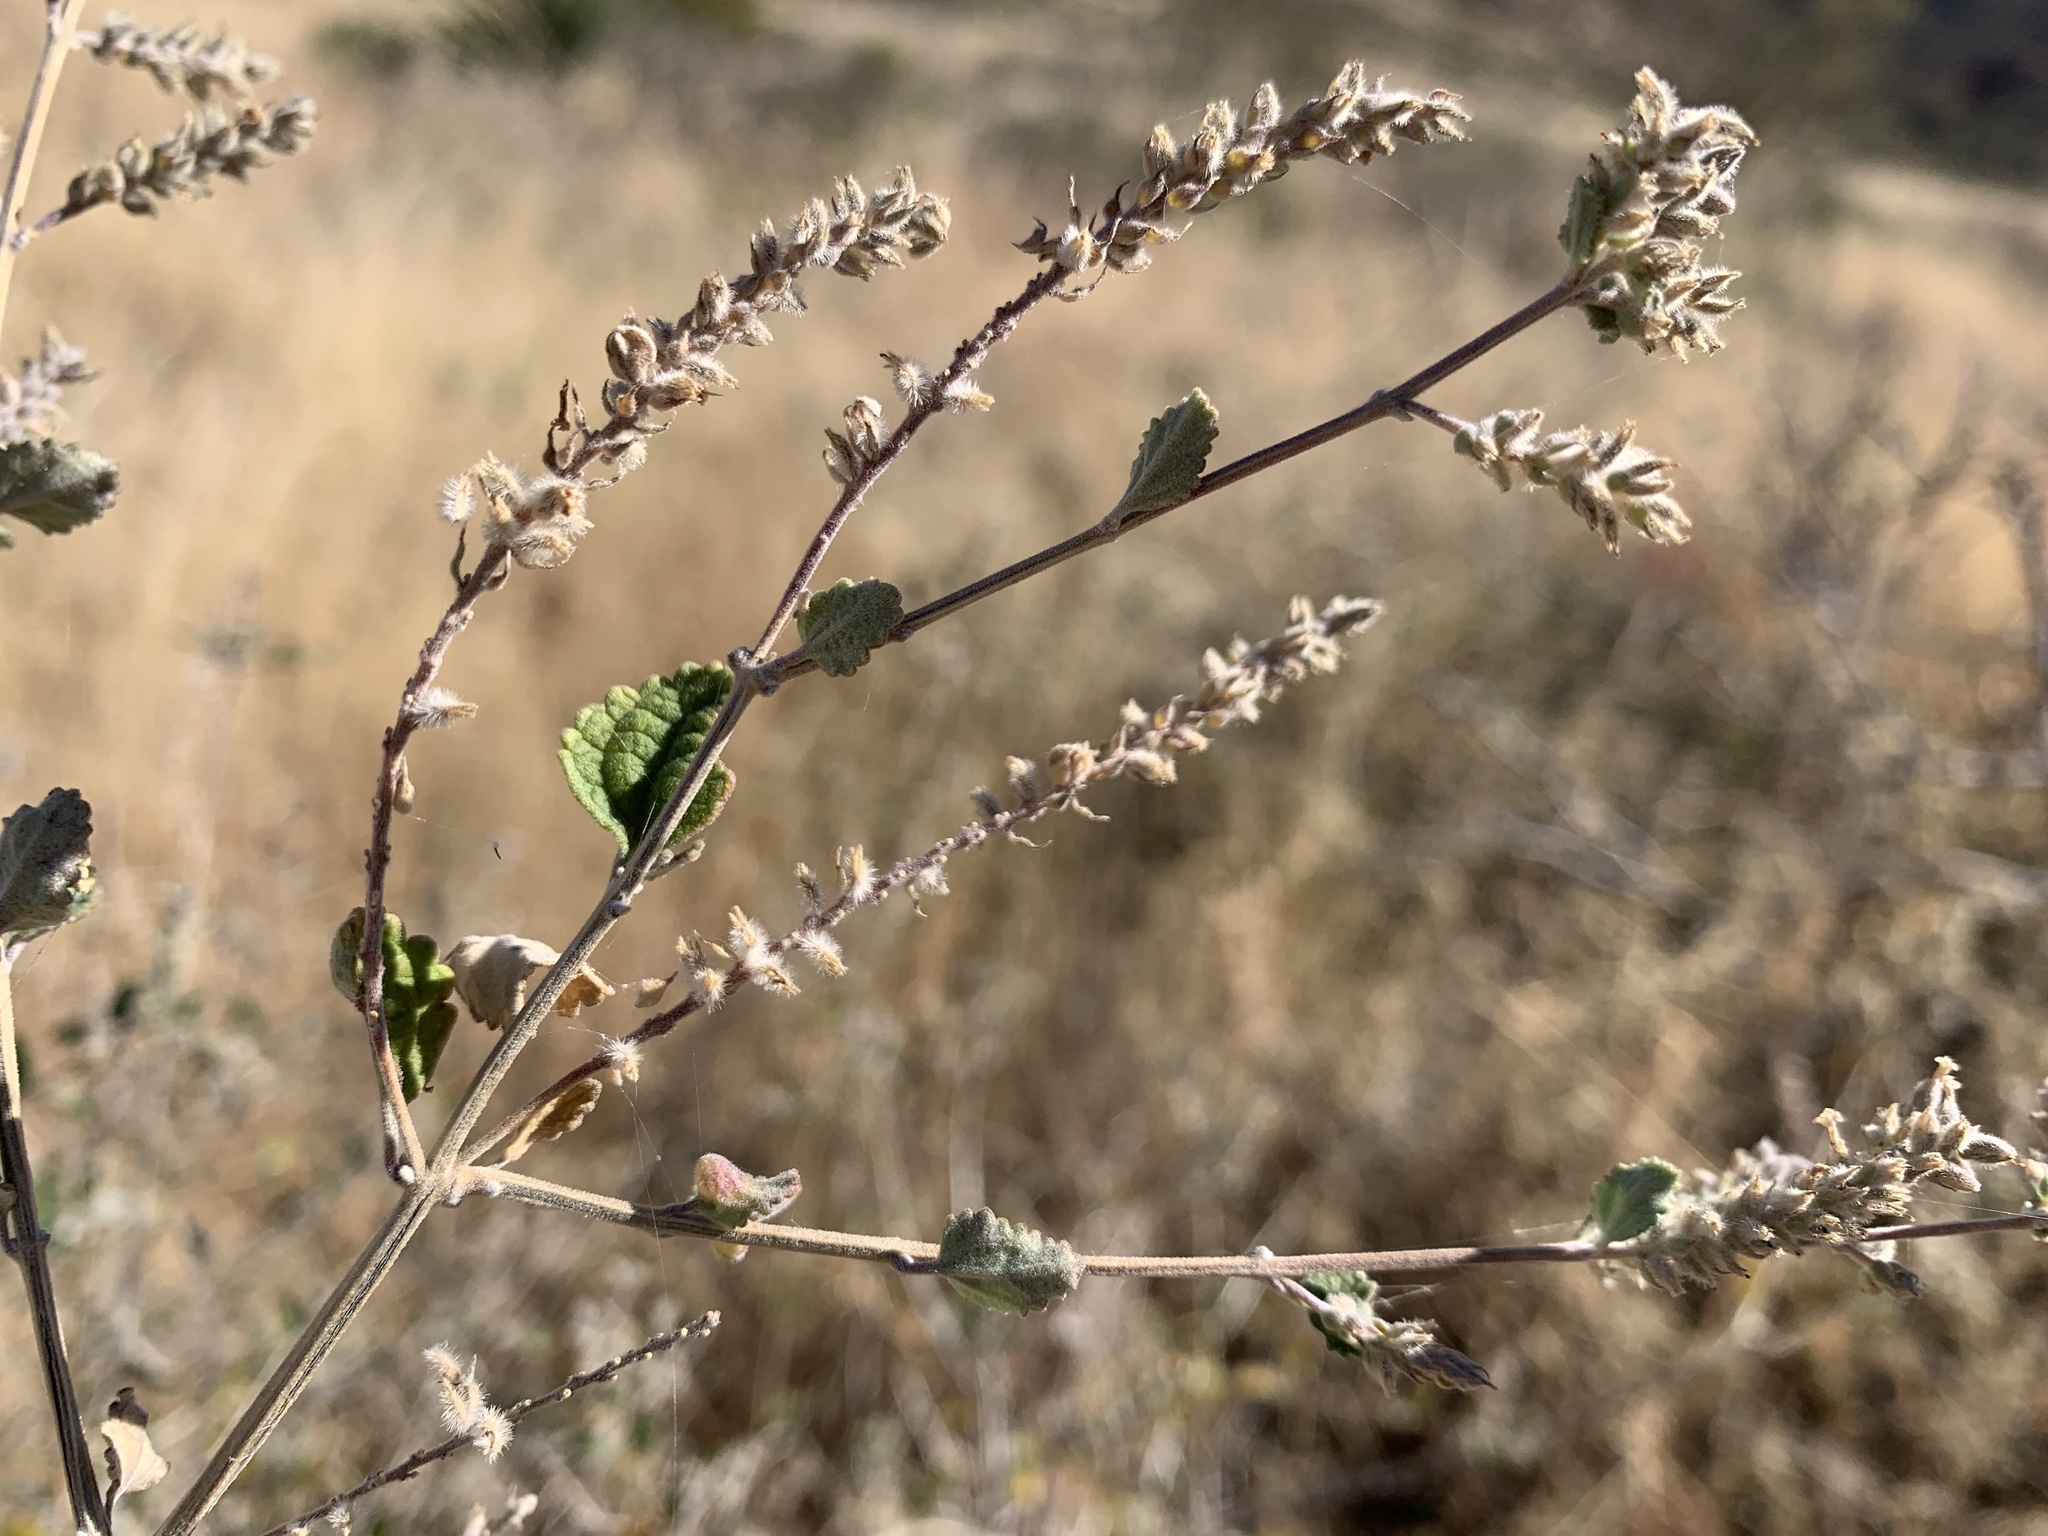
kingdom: Plantae
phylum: Tracheophyta
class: Magnoliopsida
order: Lamiales
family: Verbenaceae
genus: Aloysia
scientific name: Aloysia wrightii
